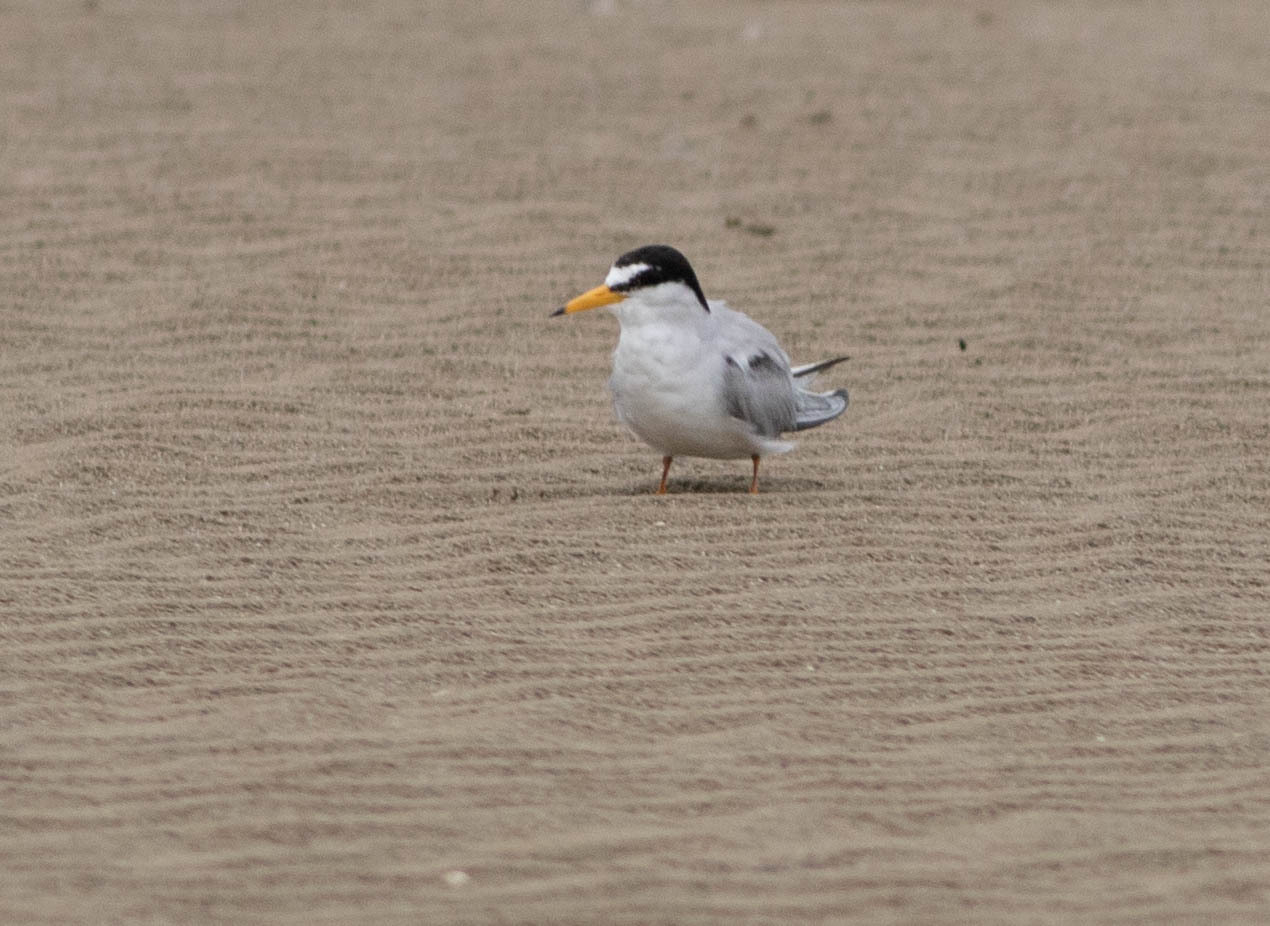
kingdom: Animalia
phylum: Chordata
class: Aves
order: Charadriiformes
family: Laridae
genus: Sternula
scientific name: Sternula antillarum
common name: Least tern
